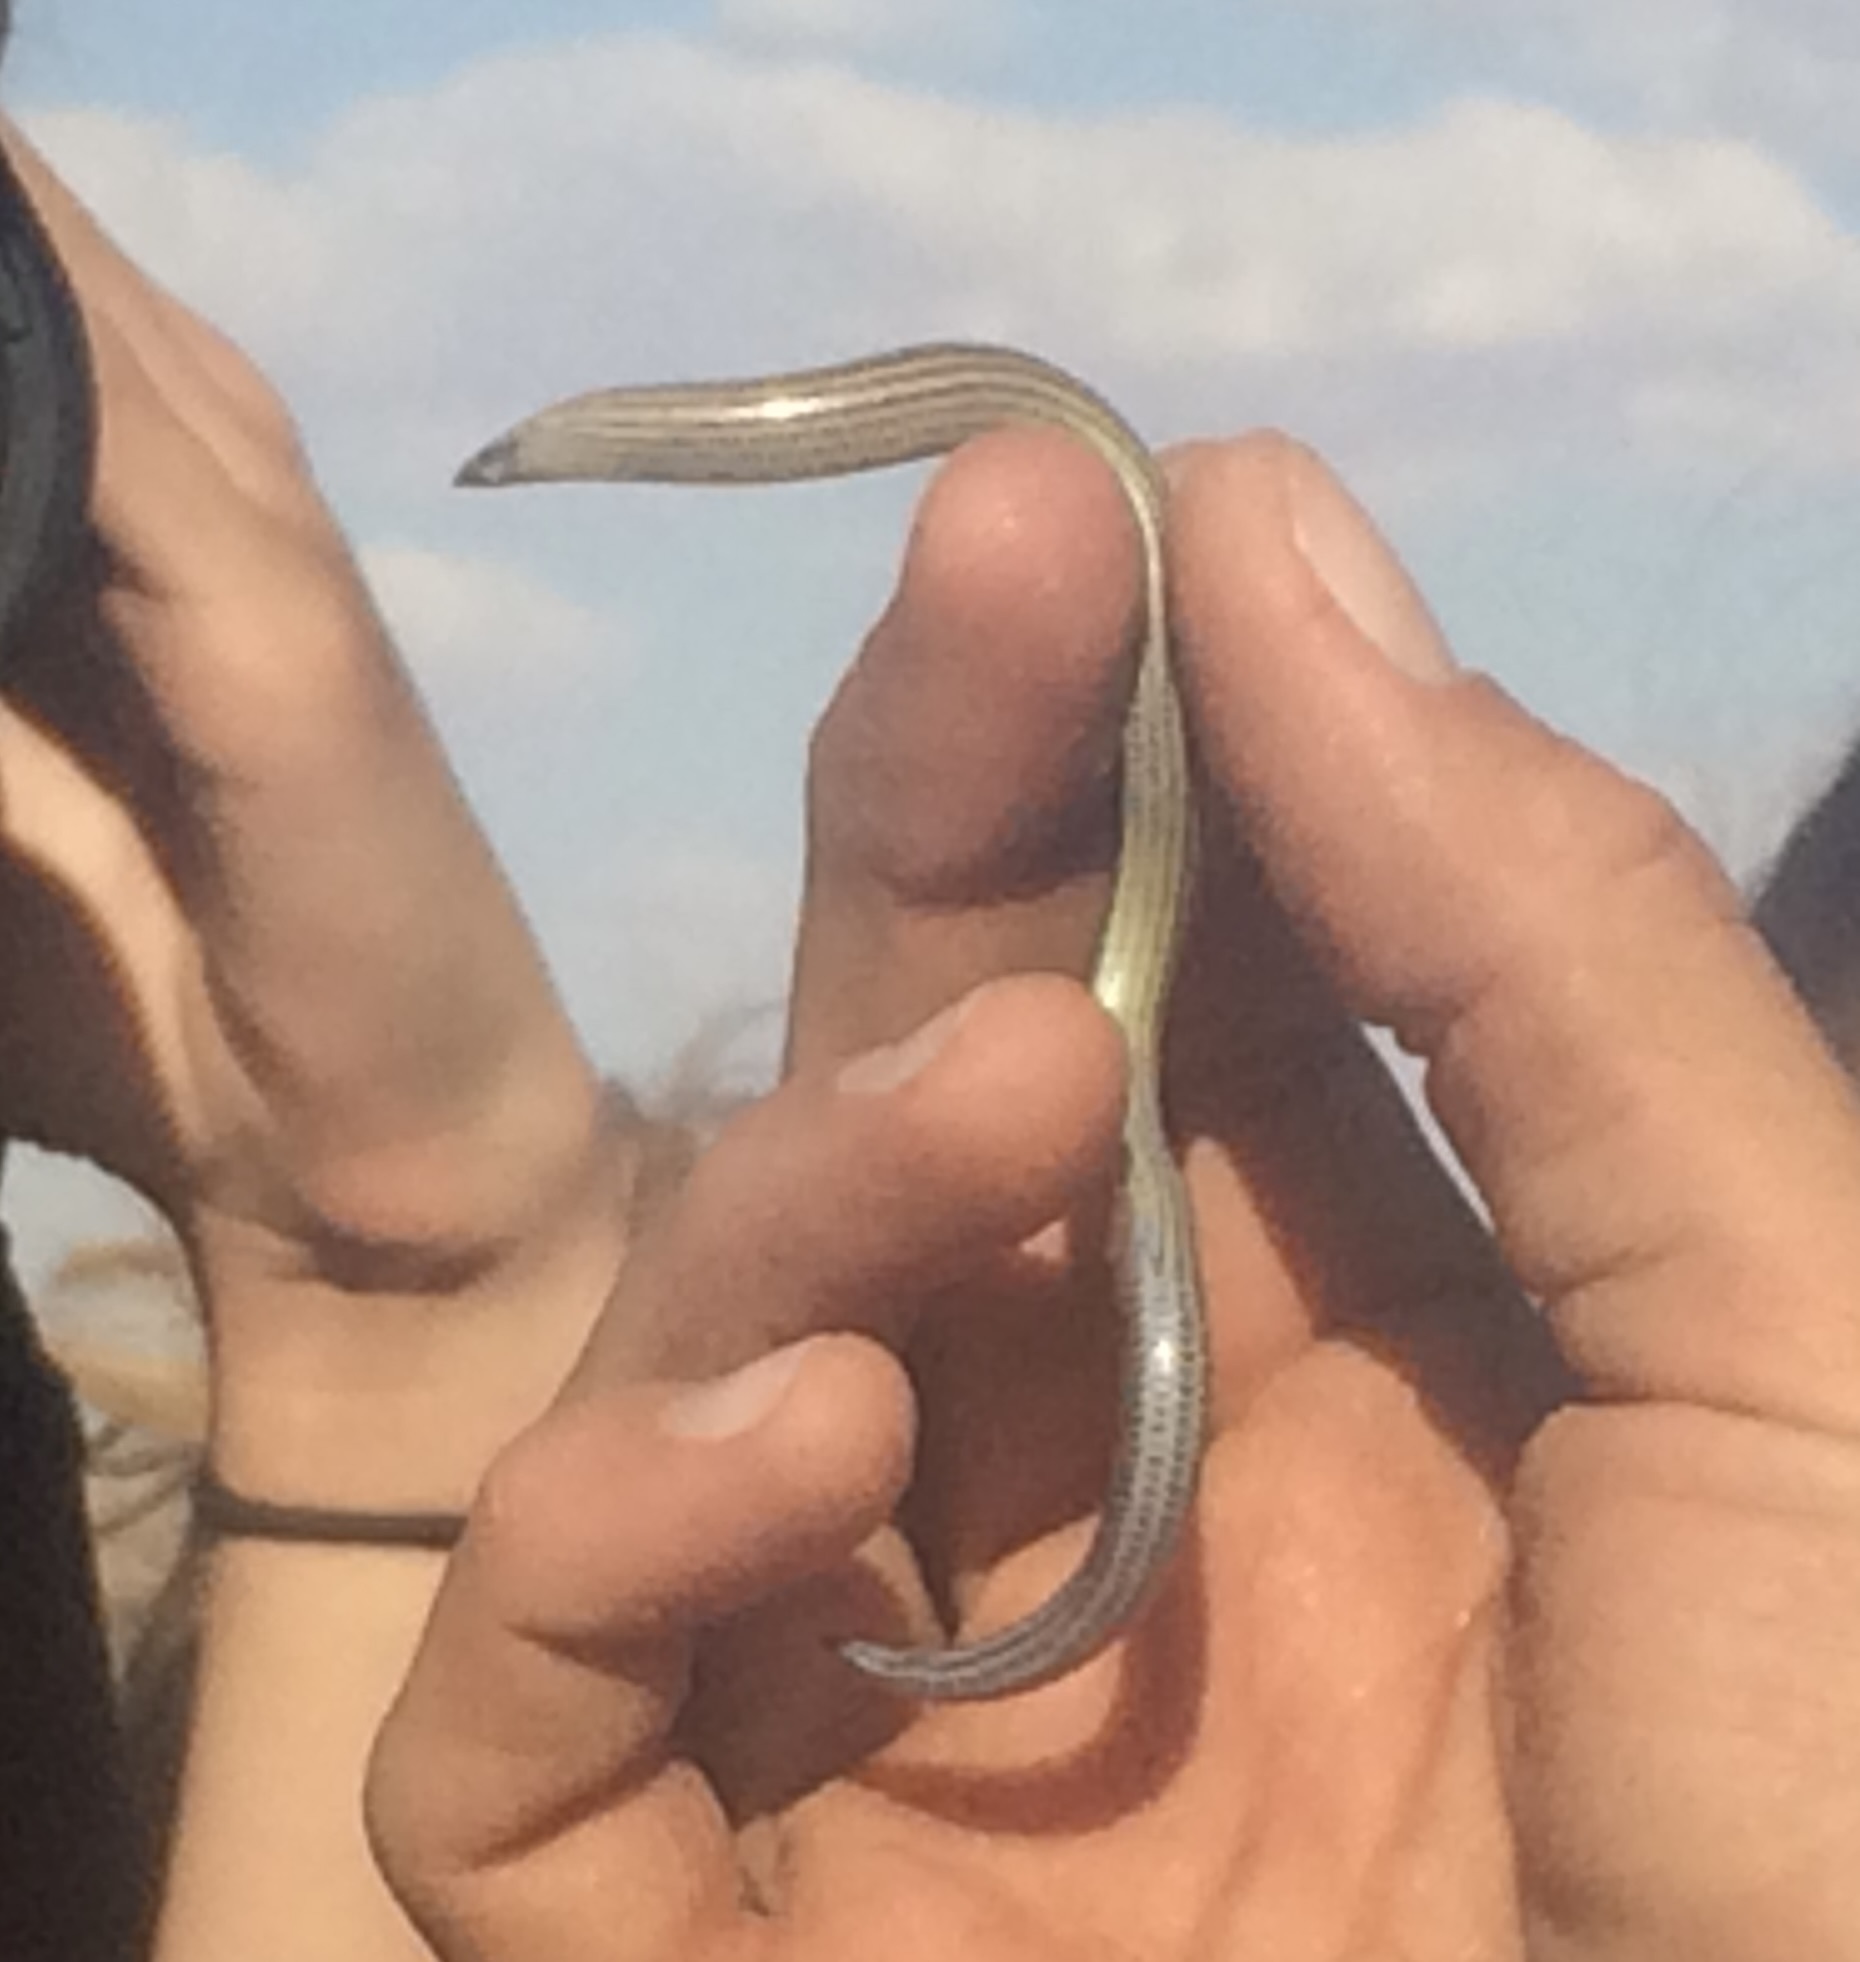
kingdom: Animalia
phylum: Chordata
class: Squamata
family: Scincidae
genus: Typhlacontias
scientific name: Typhlacontias brevipes
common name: Short blind dart skink
